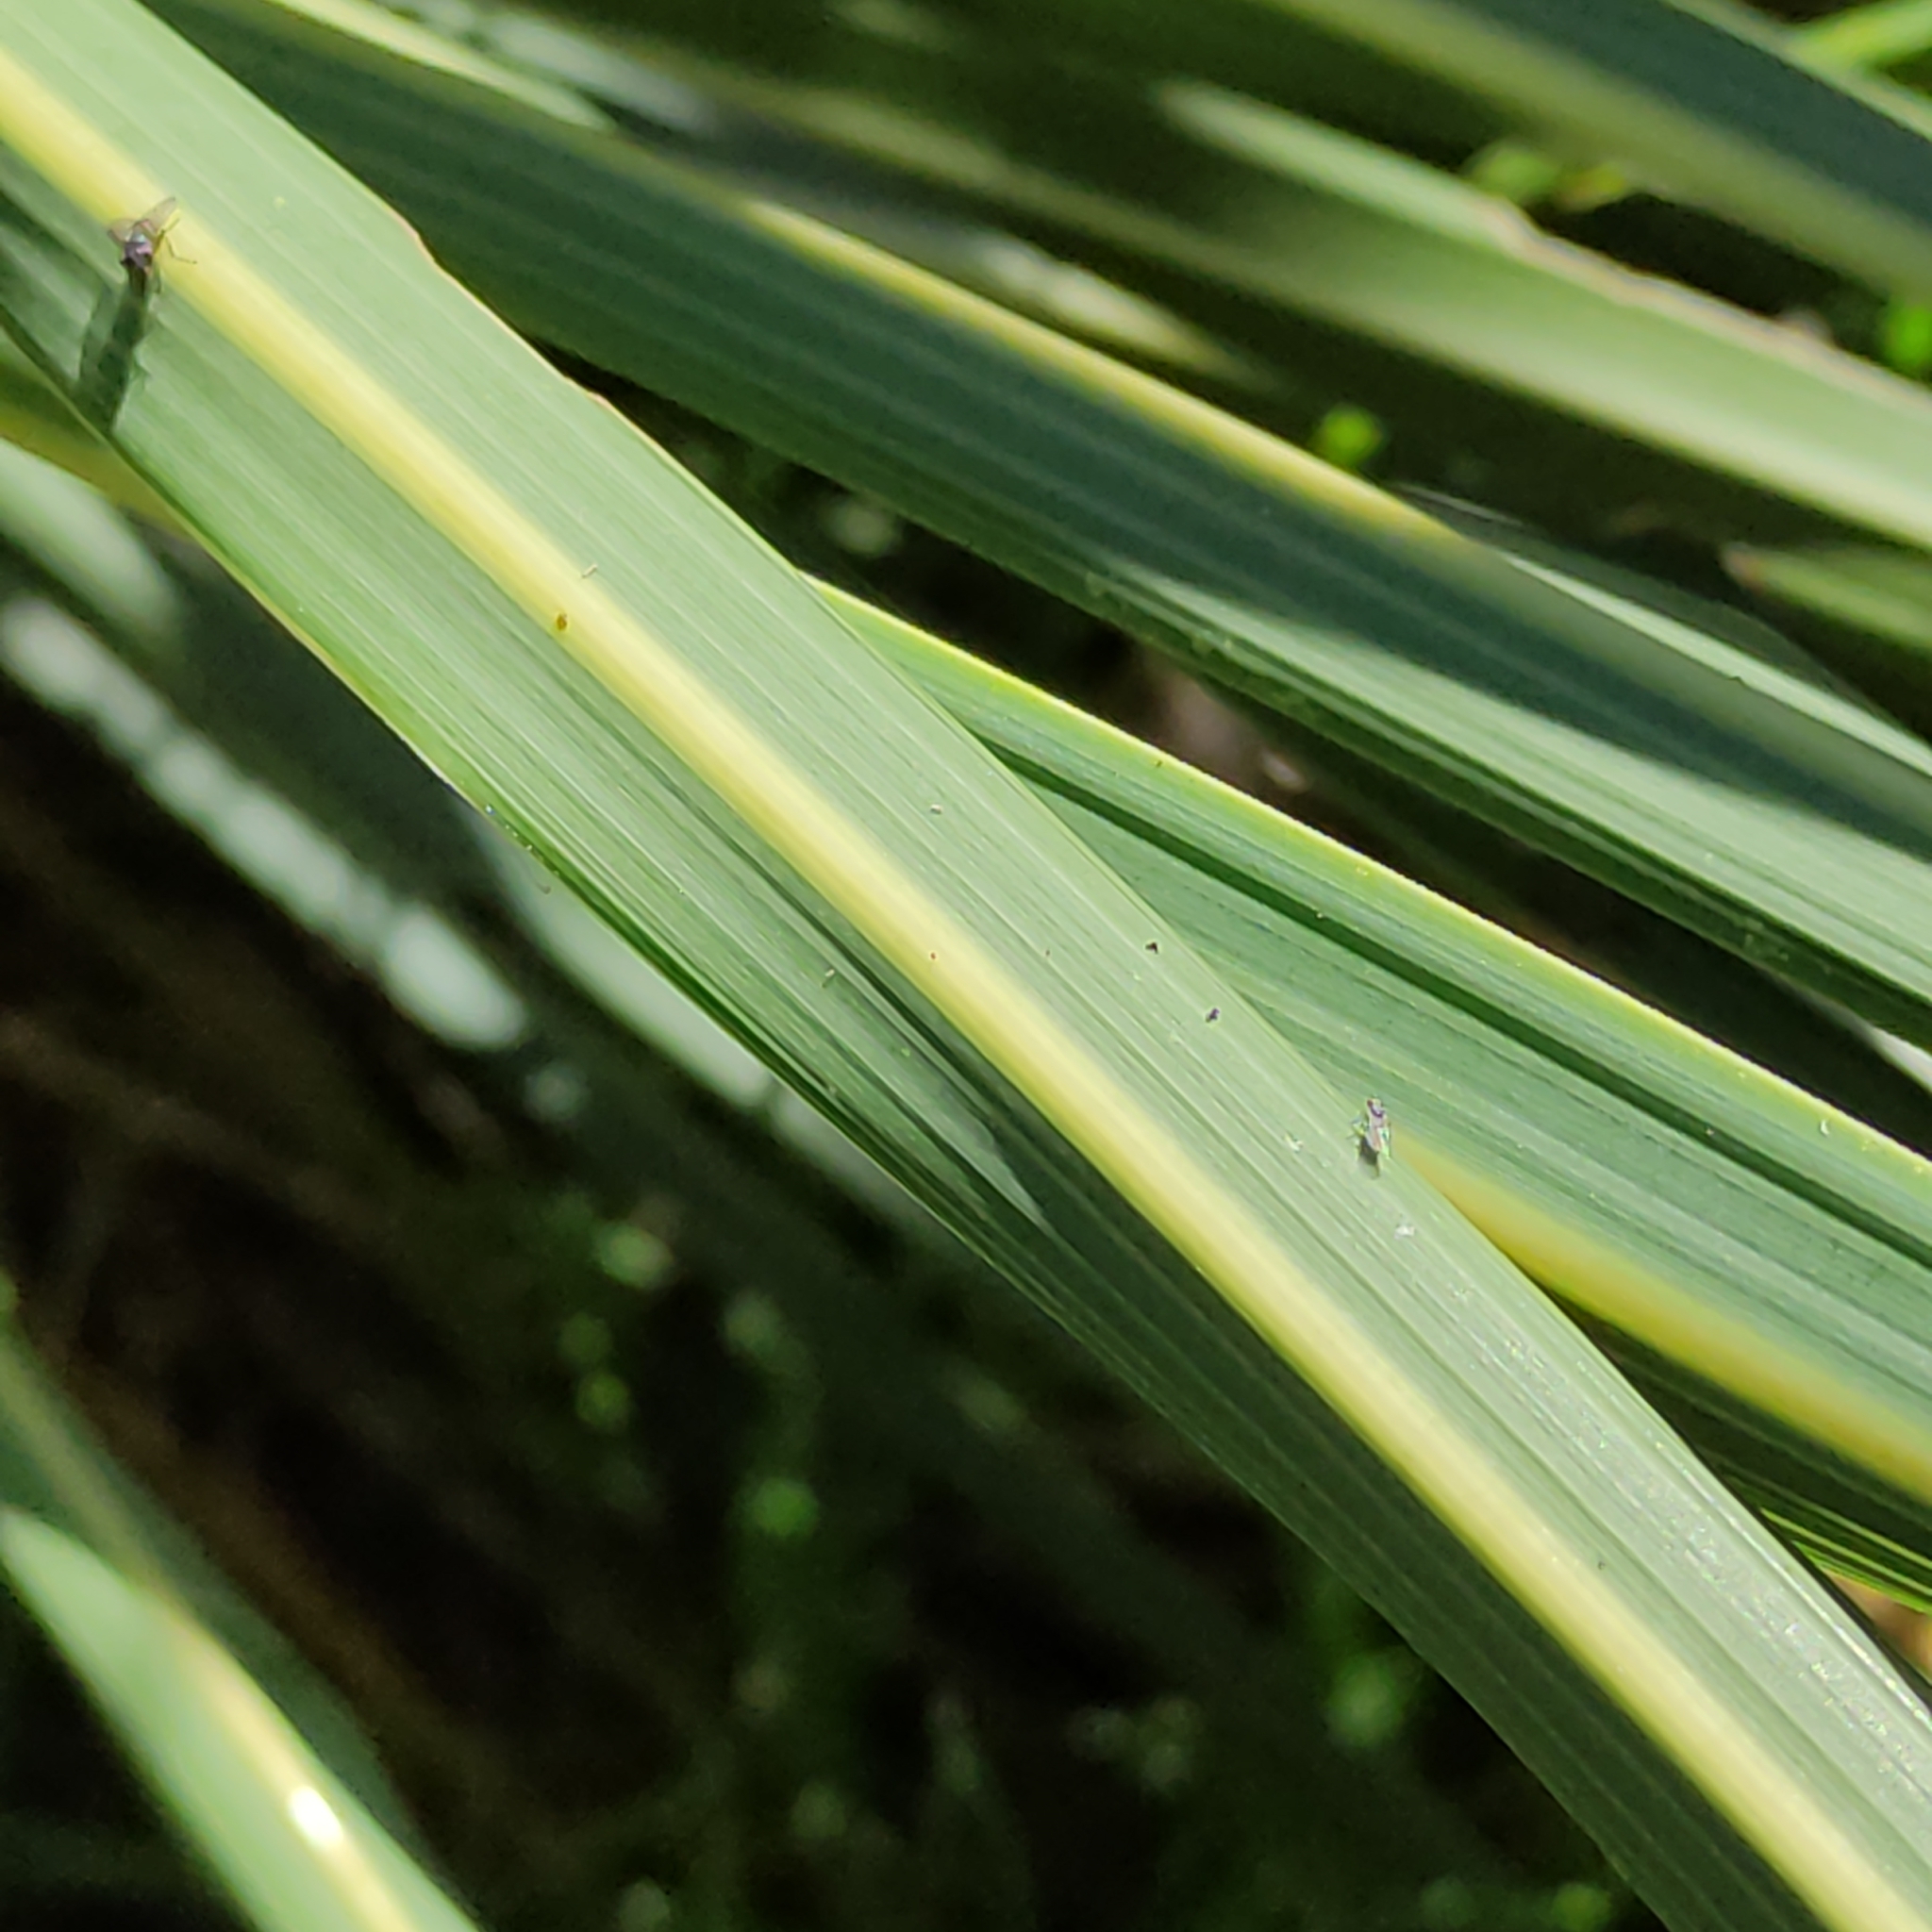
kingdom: Plantae
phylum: Tracheophyta
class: Liliopsida
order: Poales
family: Poaceae
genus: Austroderia
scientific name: Austroderia richardii
